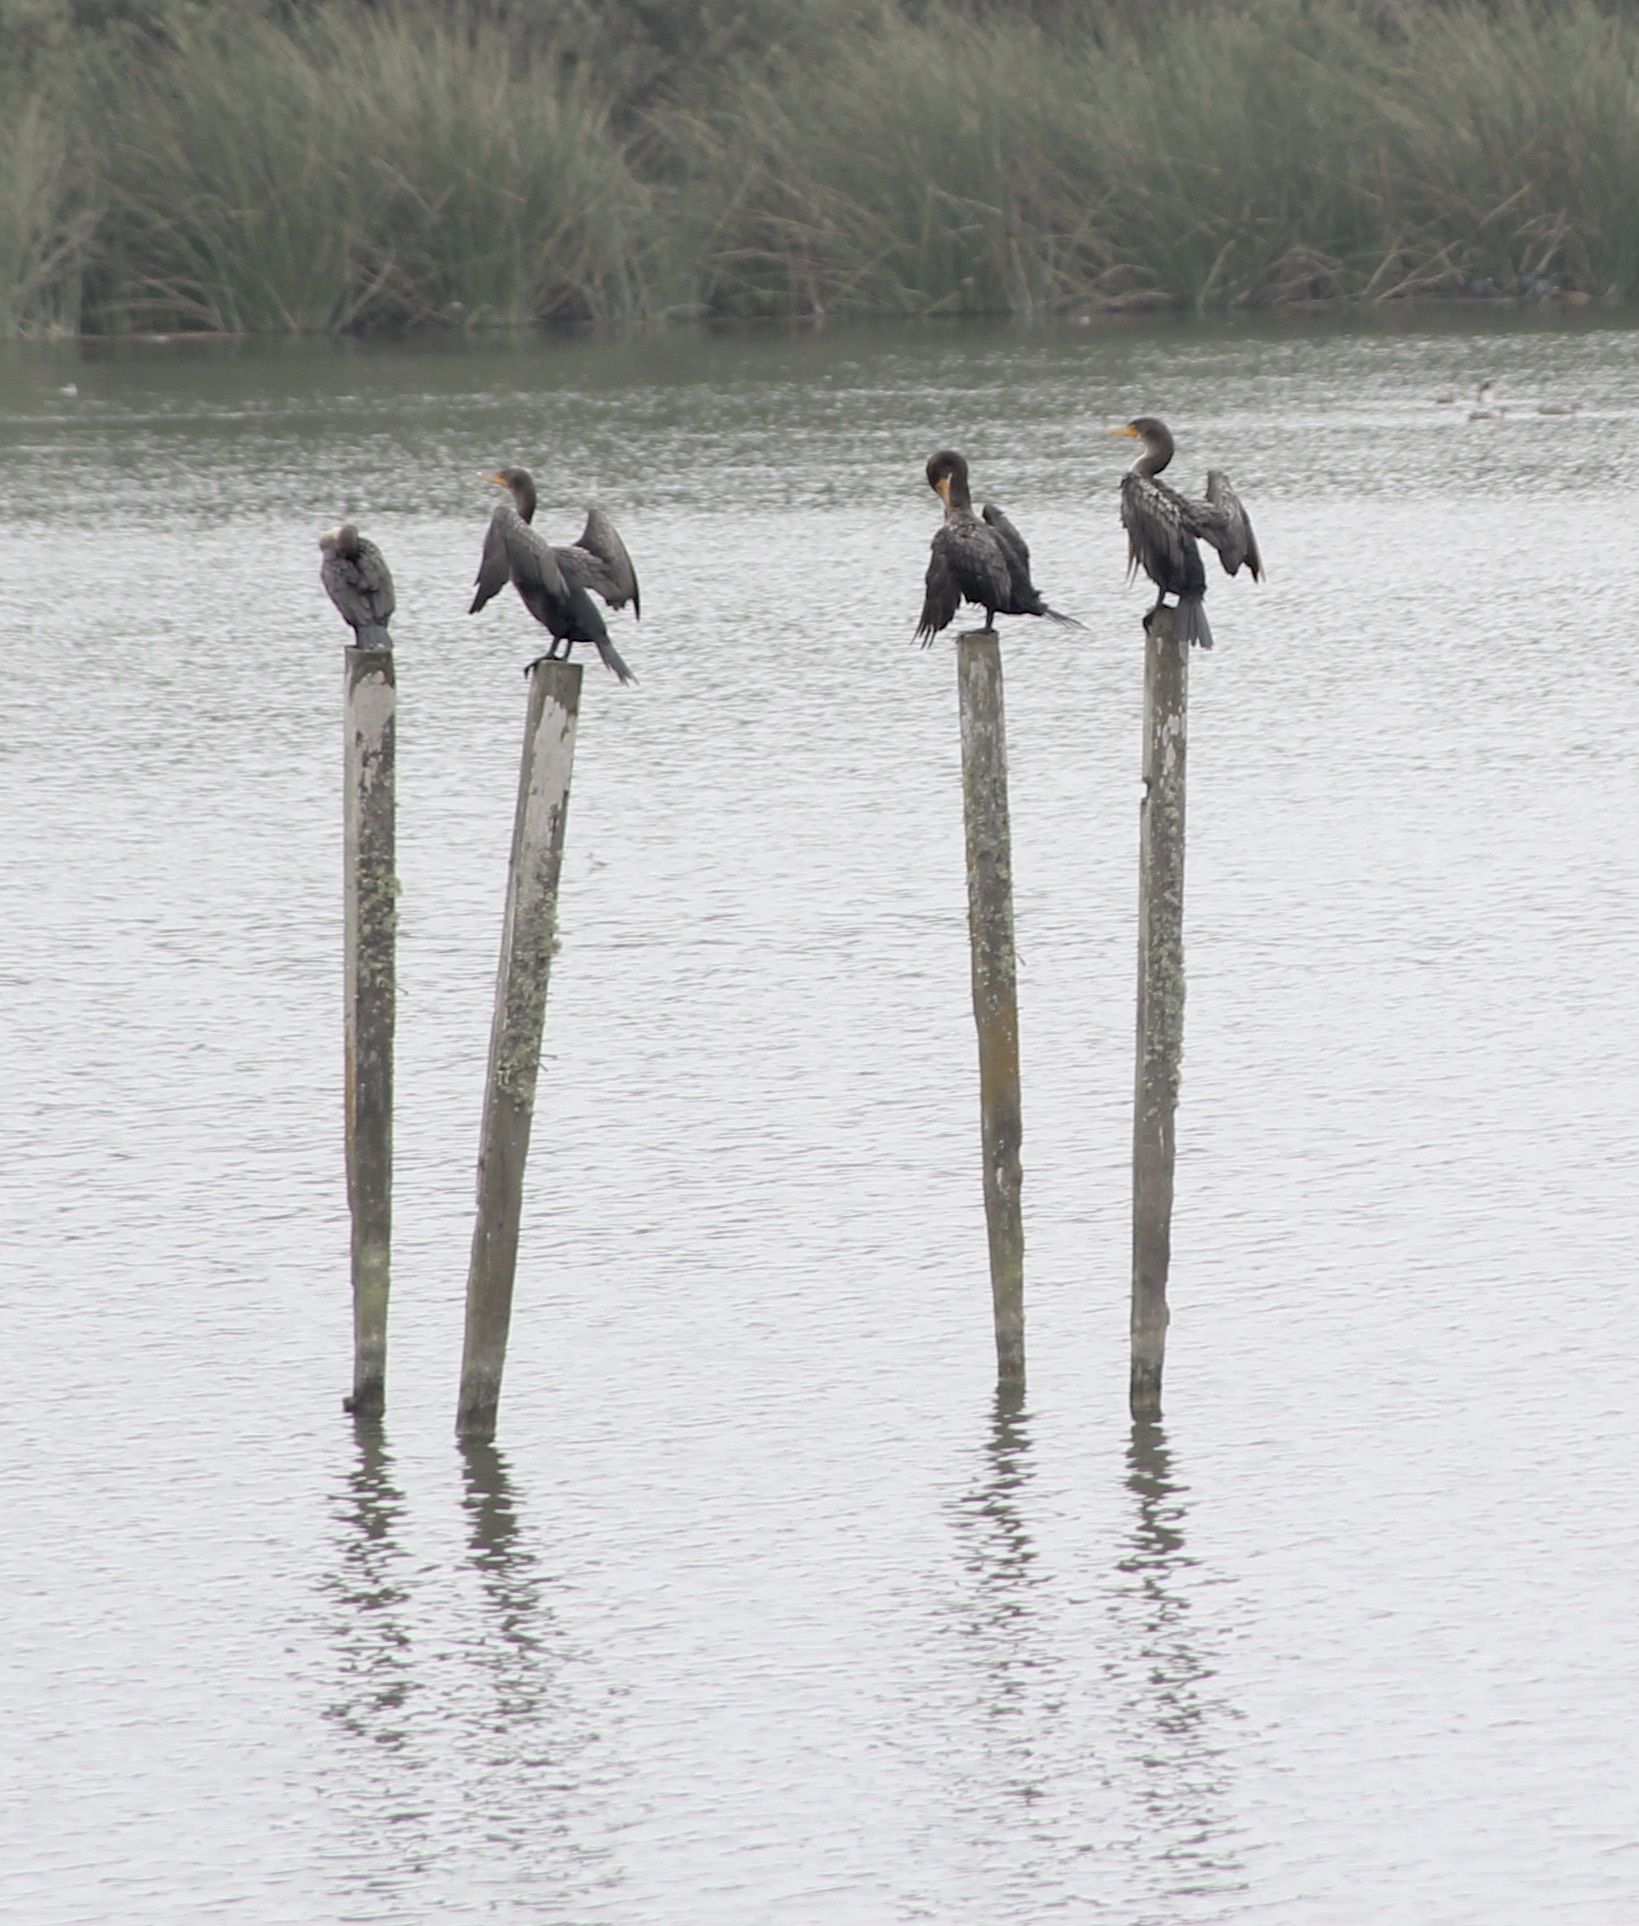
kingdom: Animalia
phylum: Chordata
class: Aves
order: Suliformes
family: Phalacrocoracidae
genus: Phalacrocorax
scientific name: Phalacrocorax auritus
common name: Double-crested cormorant
